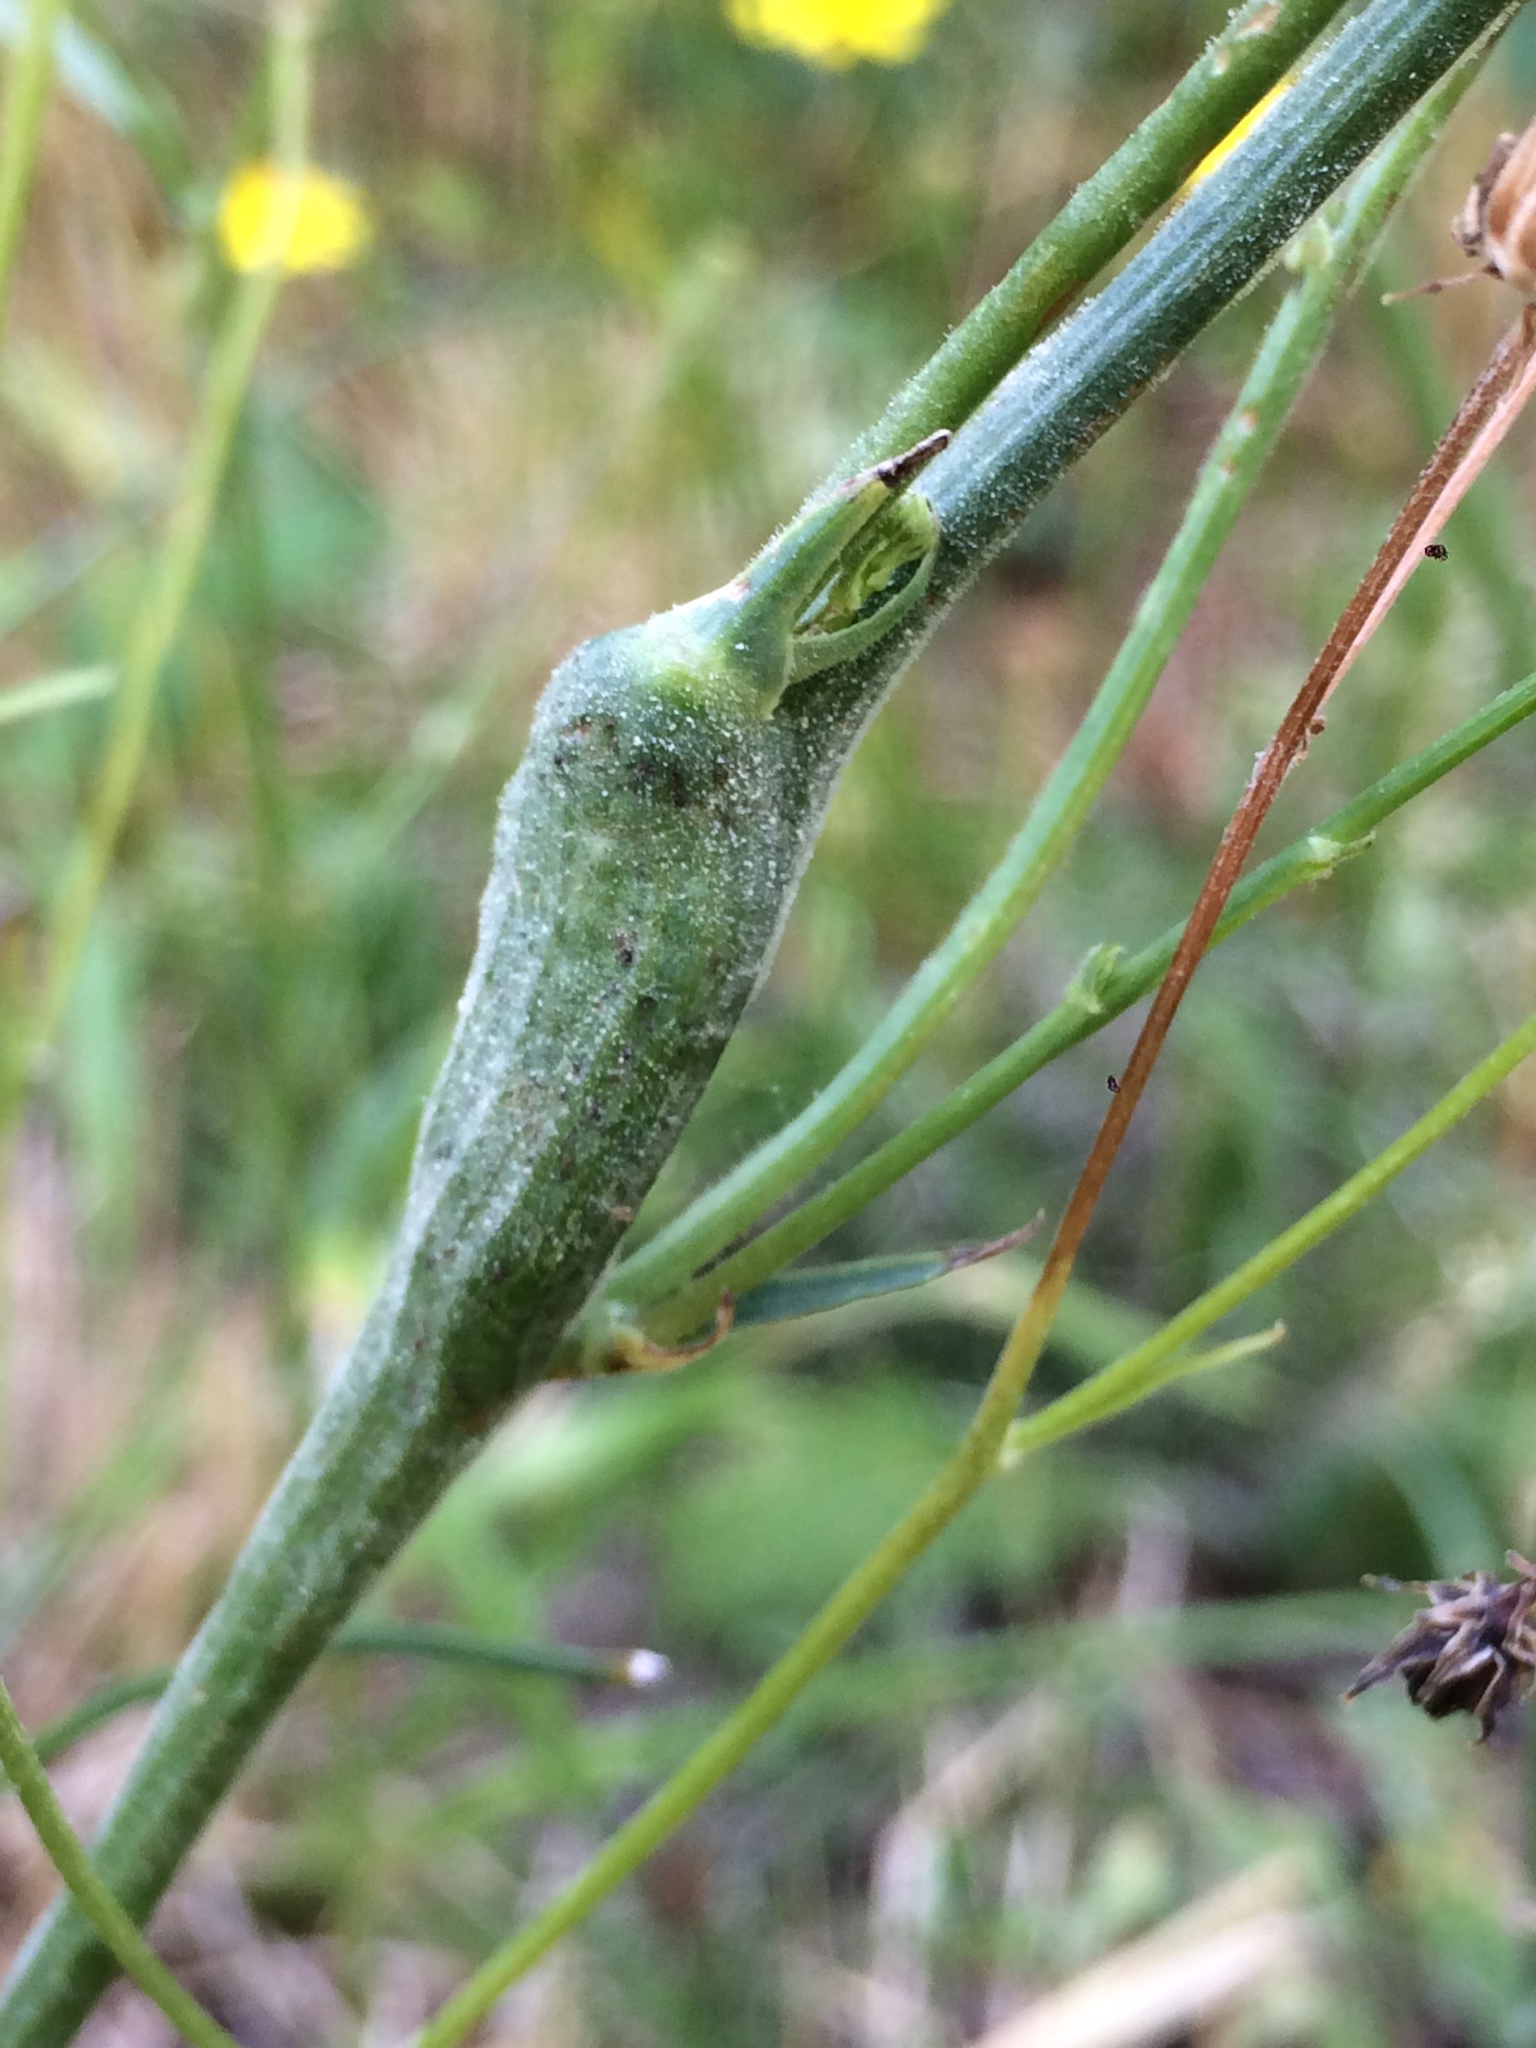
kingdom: Animalia
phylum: Arthropoda
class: Insecta
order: Hymenoptera
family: Cynipidae
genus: Phanacis
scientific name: Phanacis hypochoeridis
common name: Gall wasp
